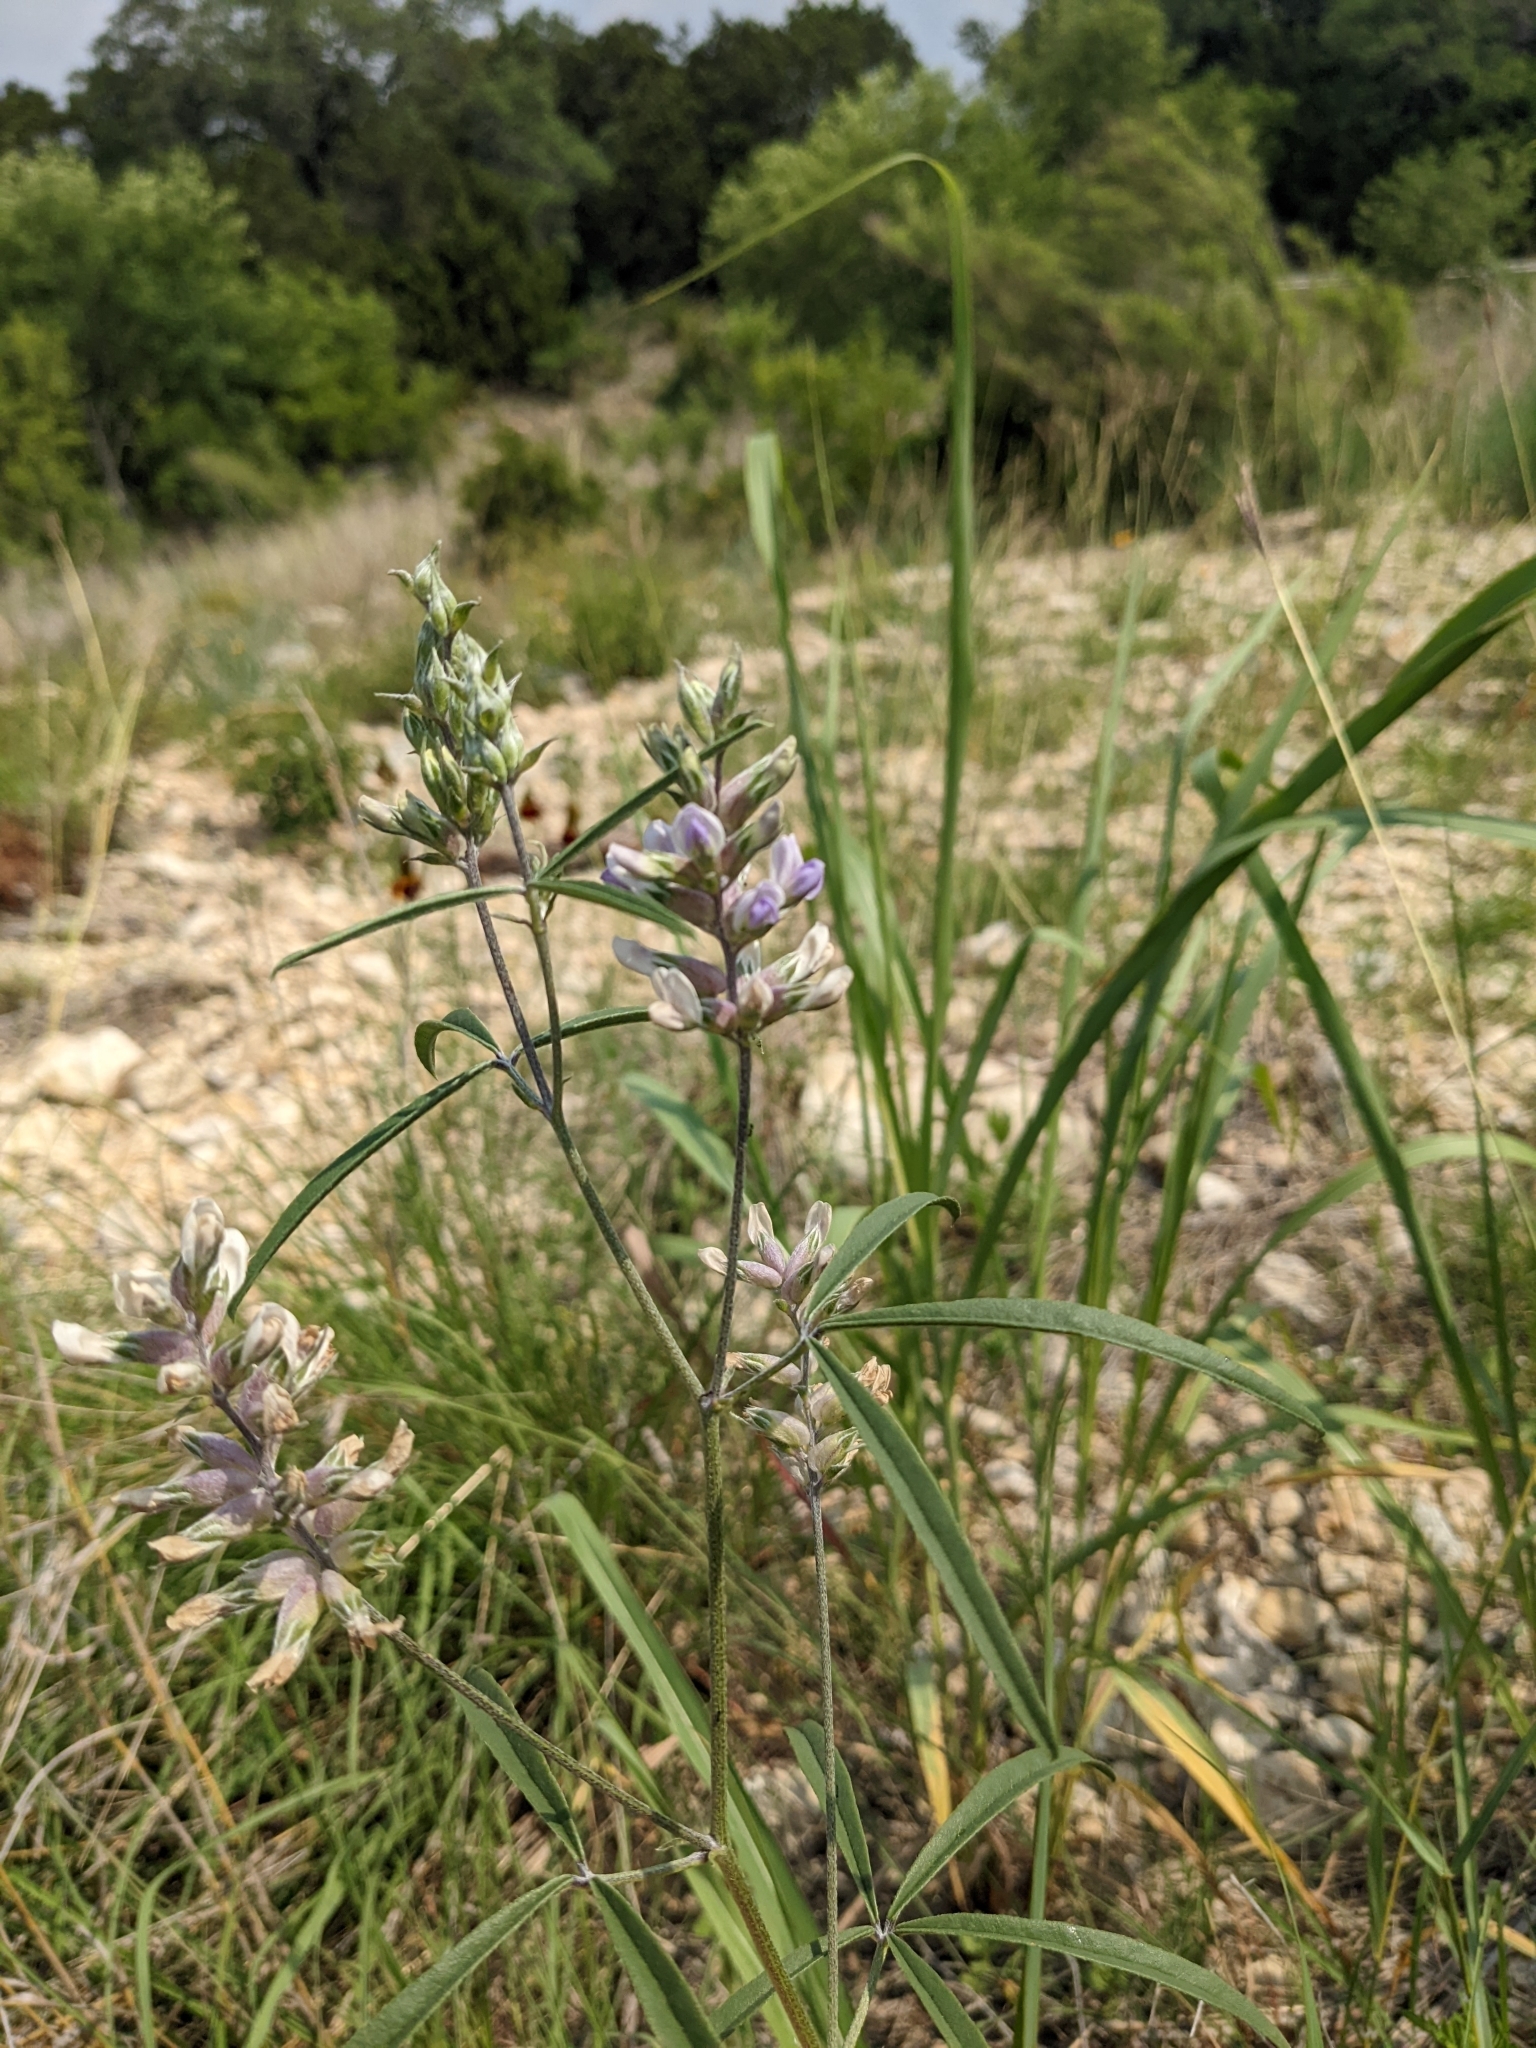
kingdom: Plantae
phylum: Tracheophyta
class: Magnoliopsida
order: Fabales
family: Fabaceae
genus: Pediomelum
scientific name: Pediomelum cyphocalyx
